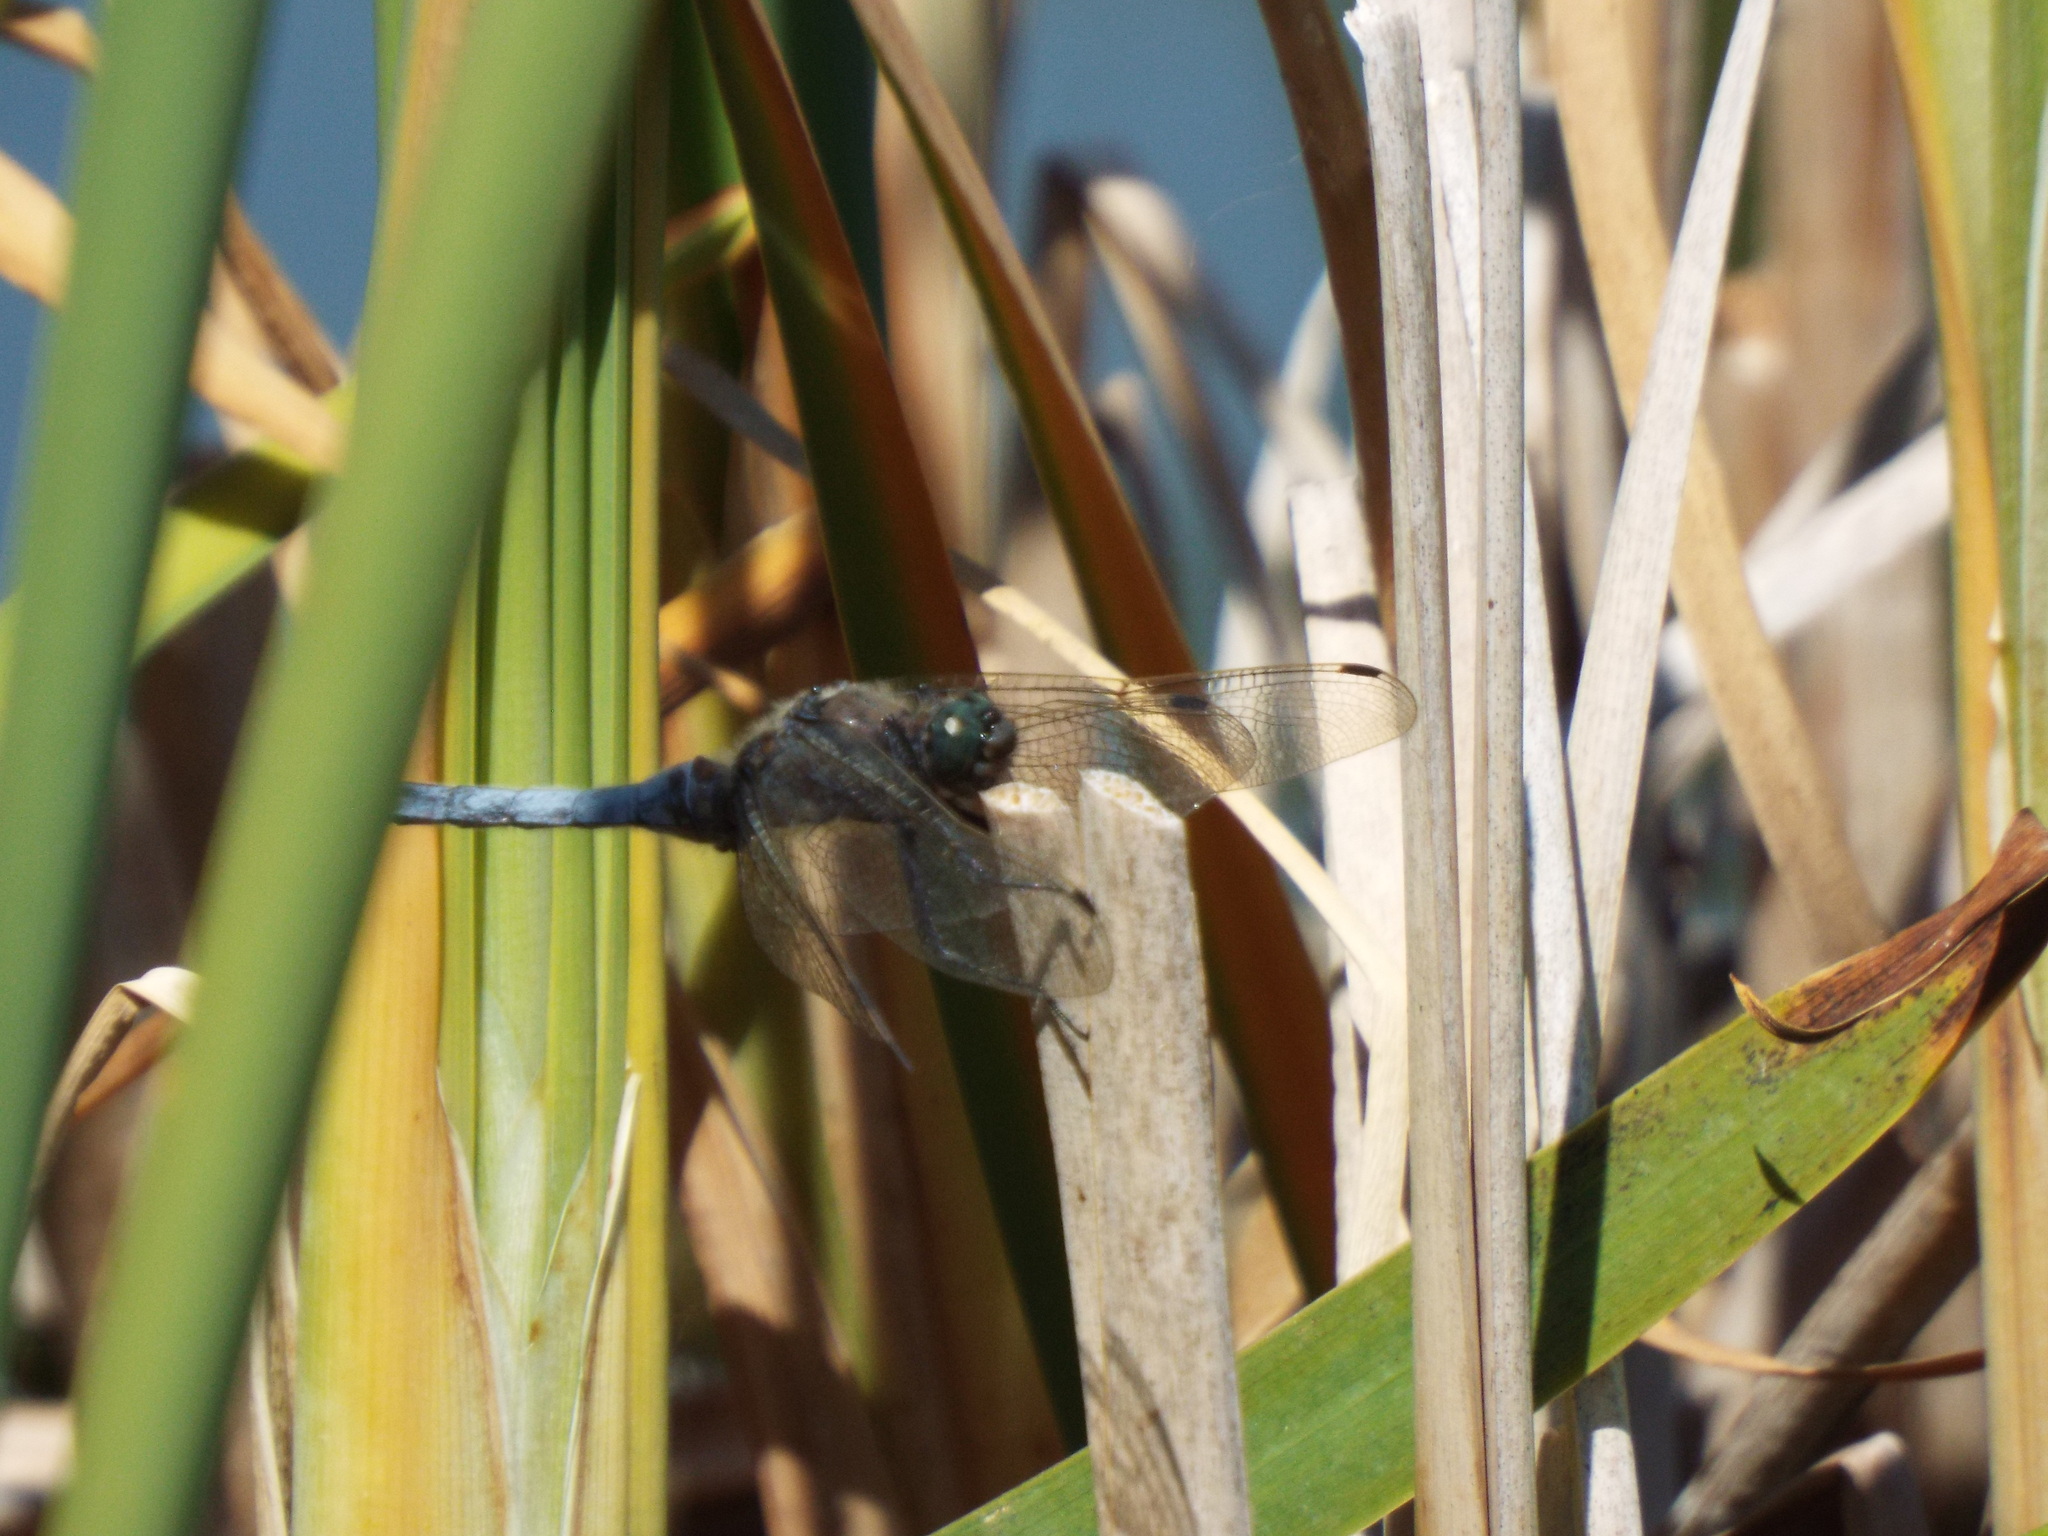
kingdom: Animalia
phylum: Arthropoda
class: Insecta
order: Odonata
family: Libellulidae
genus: Orthetrum
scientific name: Orthetrum cancellatum
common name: Black-tailed skimmer
